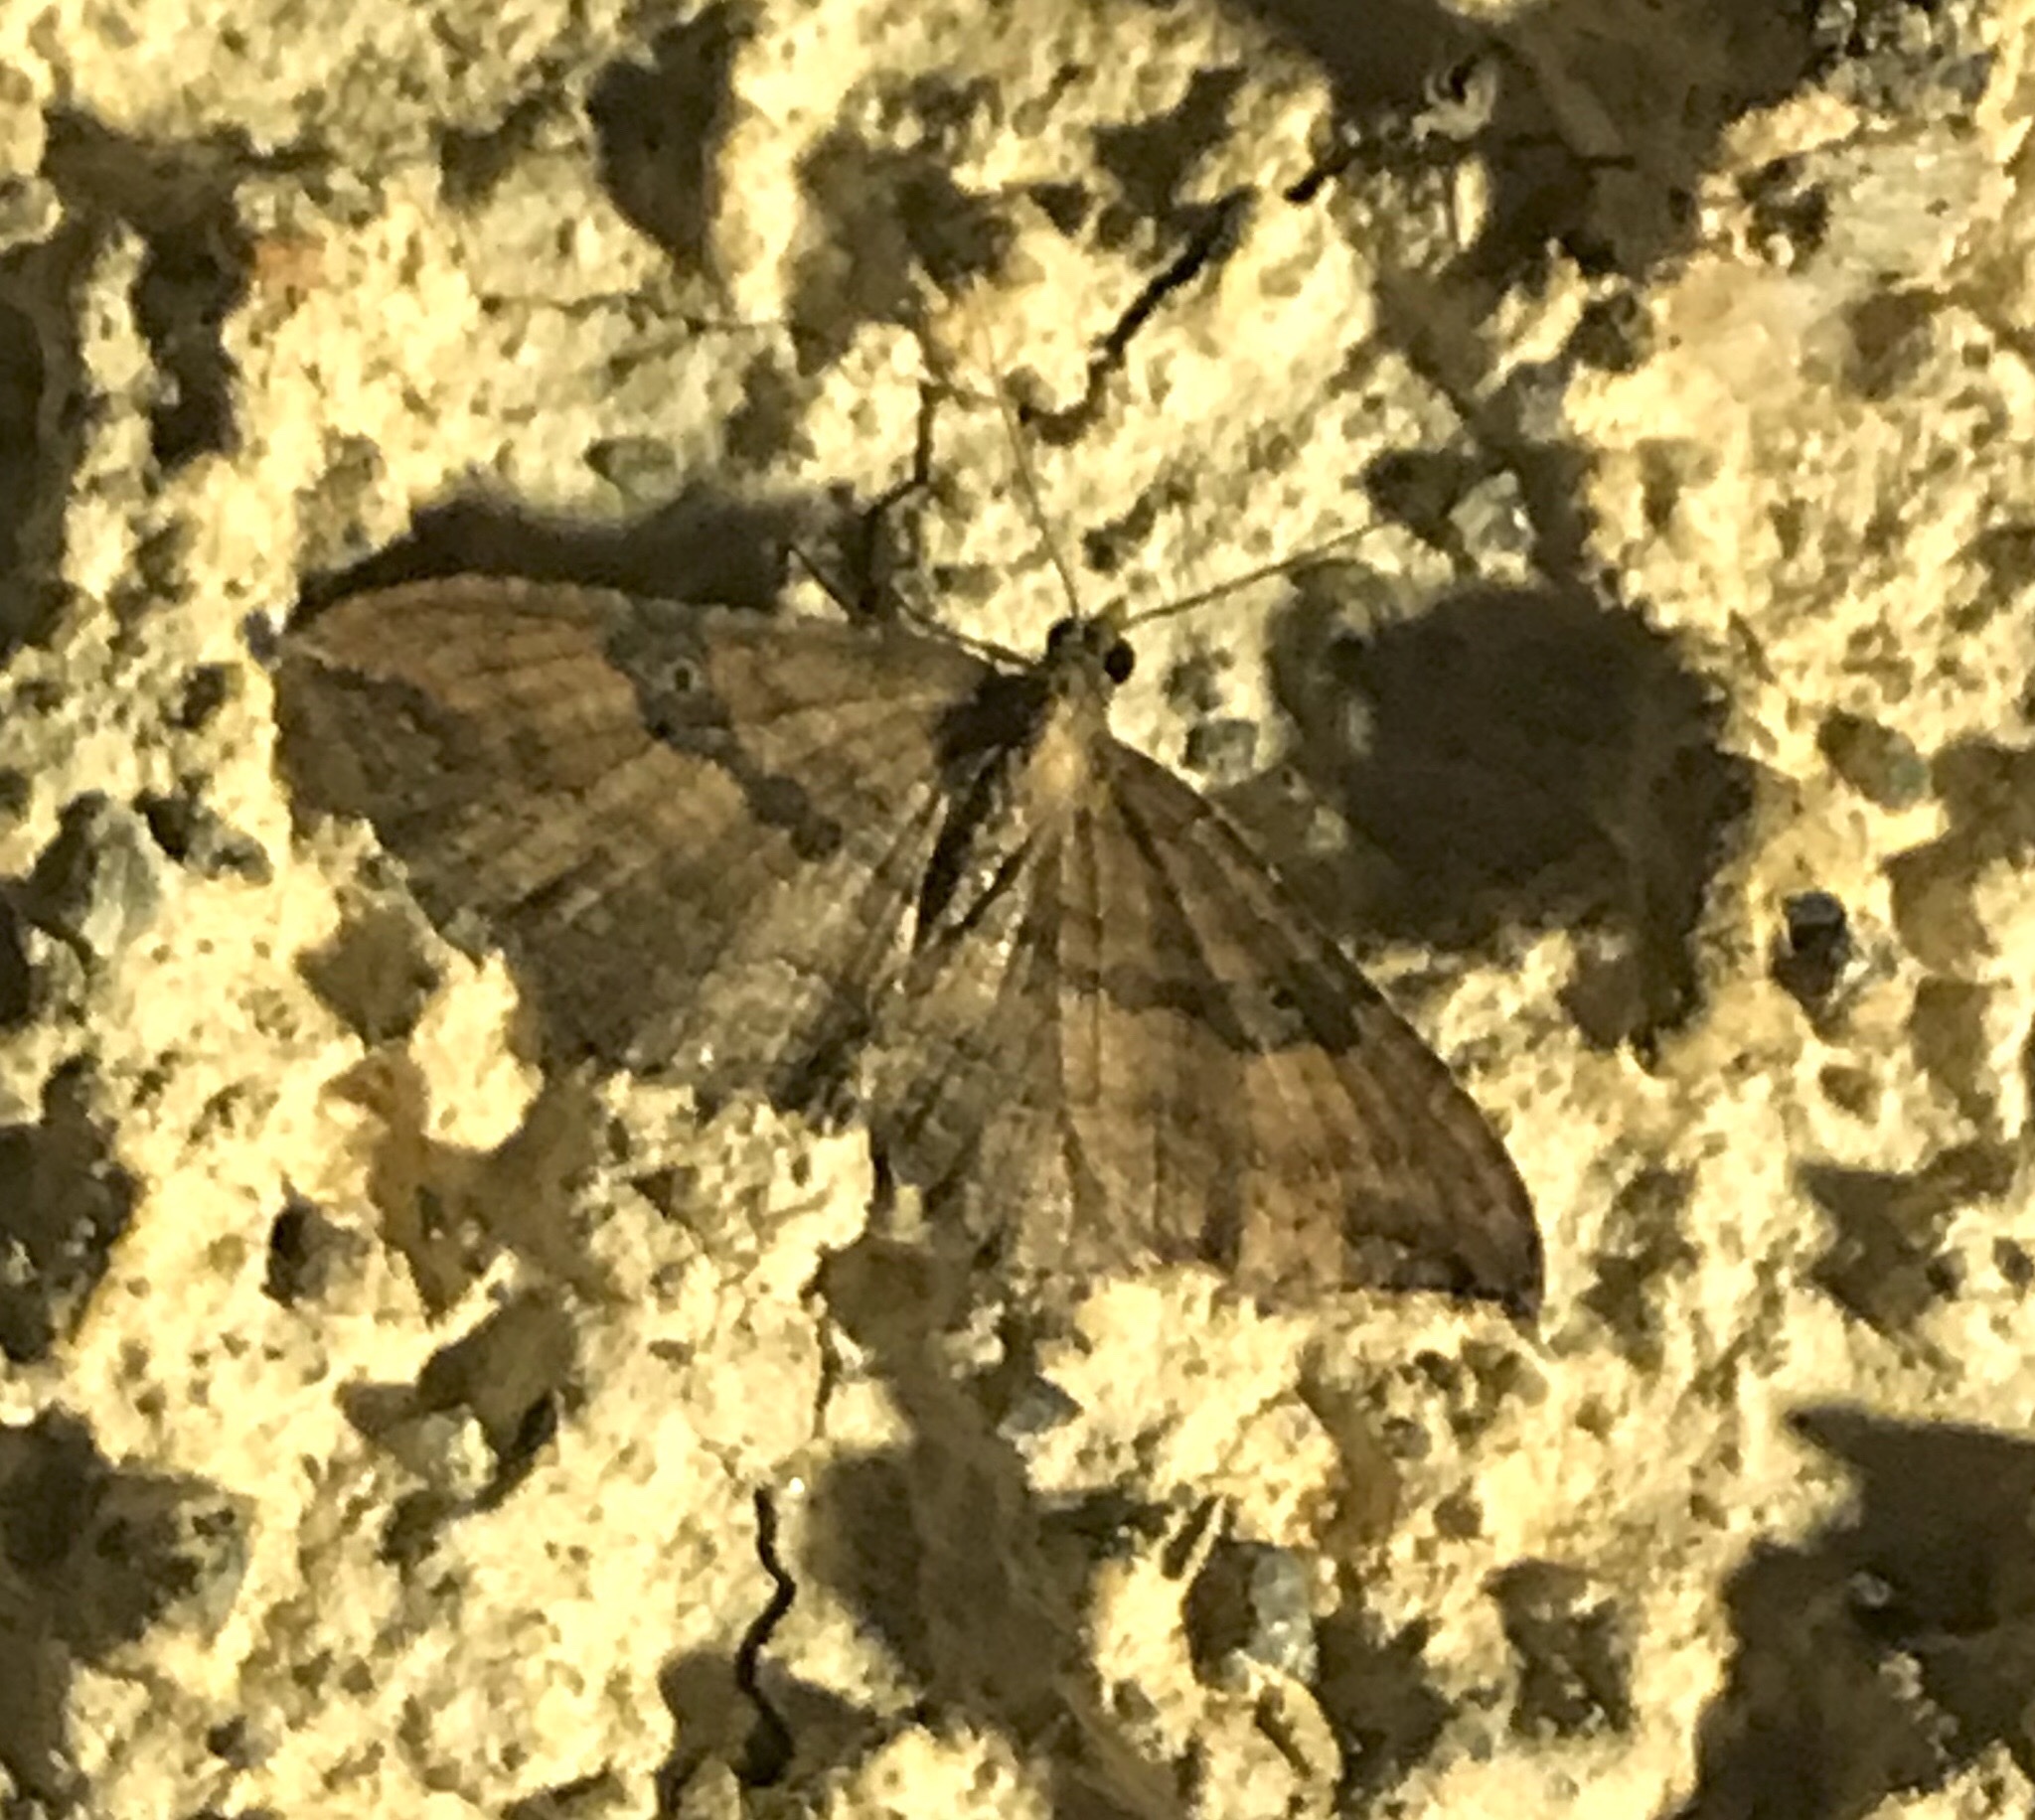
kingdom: Animalia
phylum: Arthropoda
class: Insecta
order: Lepidoptera
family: Geometridae
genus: Orthonama
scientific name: Orthonama obstipata
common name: The gem
